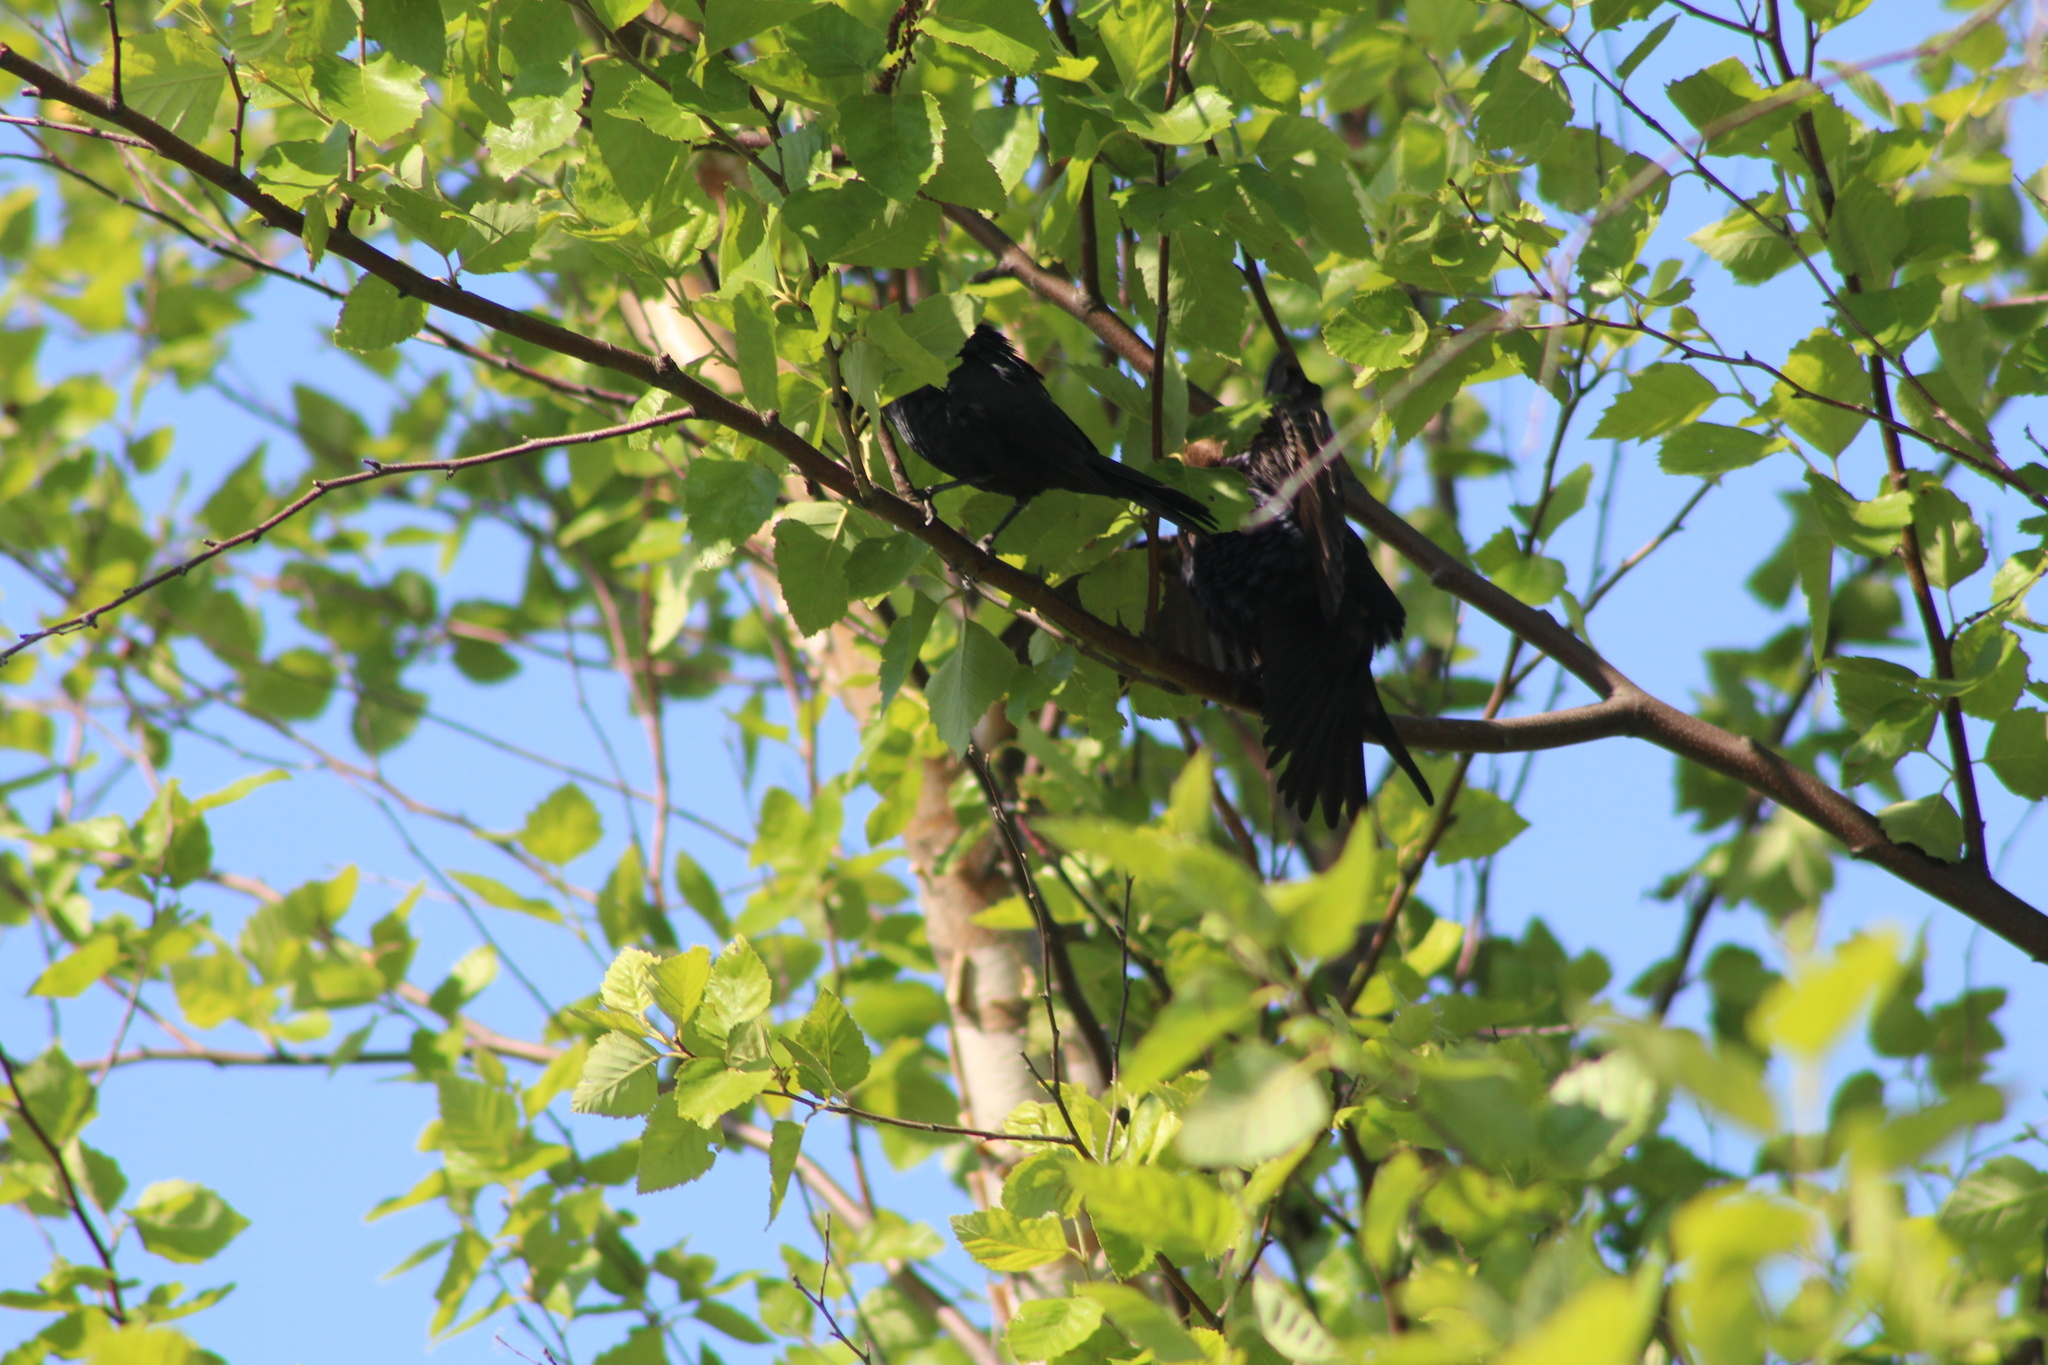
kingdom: Animalia
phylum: Chordata
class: Aves
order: Passeriformes
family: Icteridae
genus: Molothrus
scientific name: Molothrus ater
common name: Brown-headed cowbird
